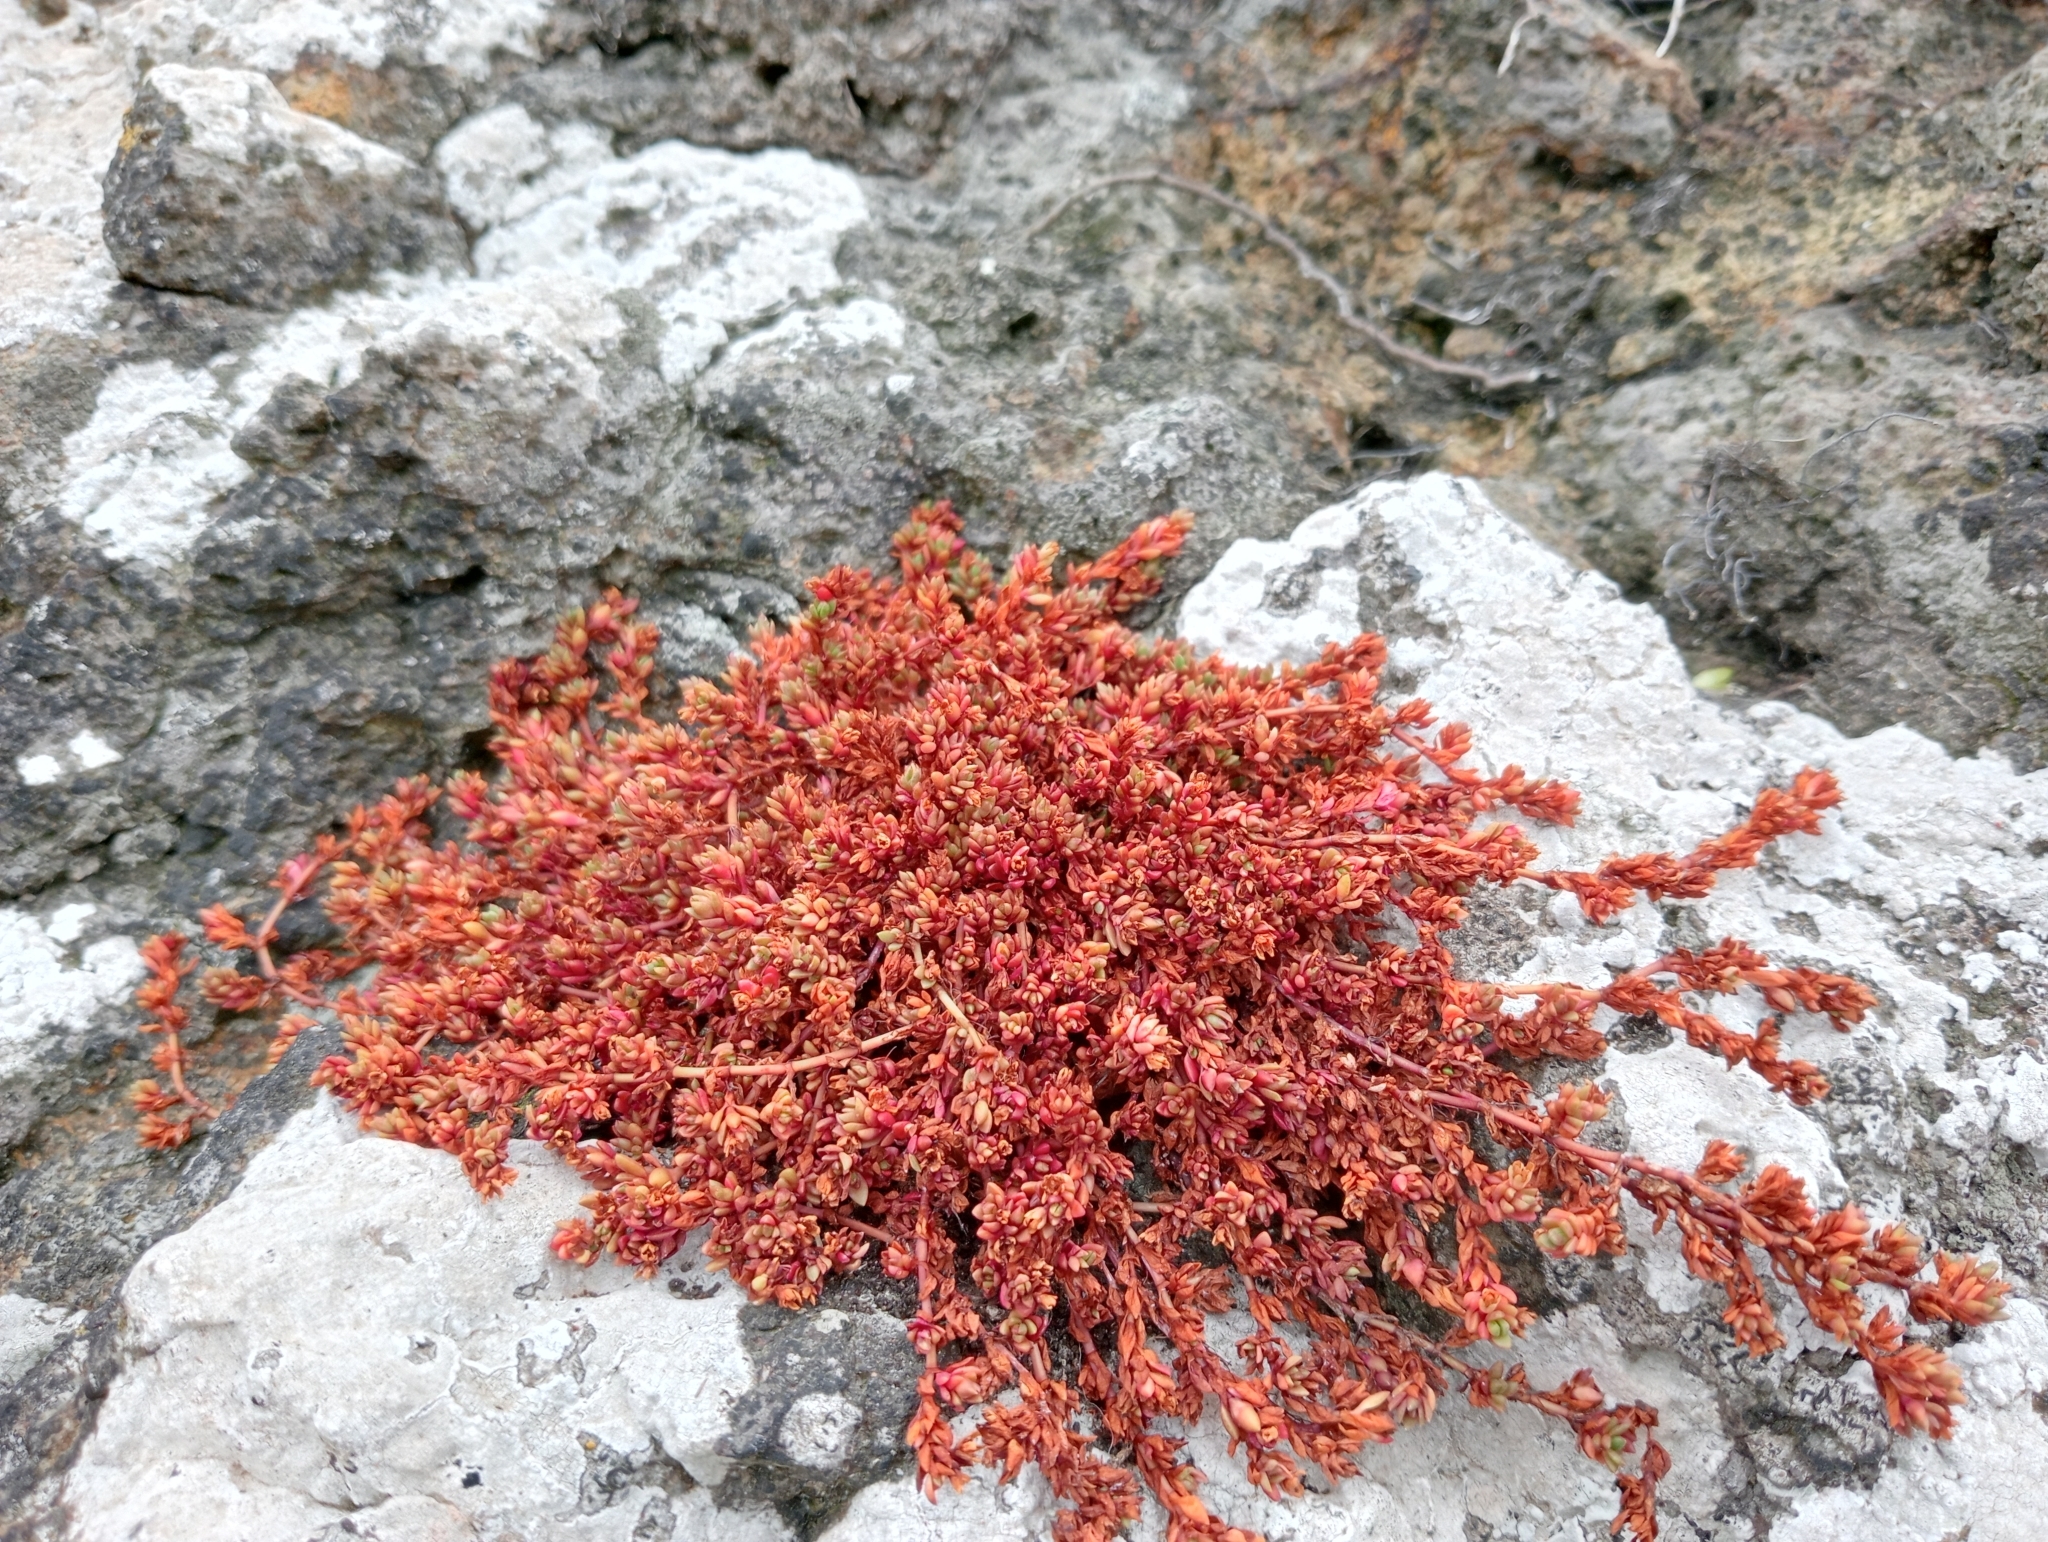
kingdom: Plantae
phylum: Tracheophyta
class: Magnoliopsida
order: Saxifragales
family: Crassulaceae
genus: Crassula
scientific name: Crassula moschata
